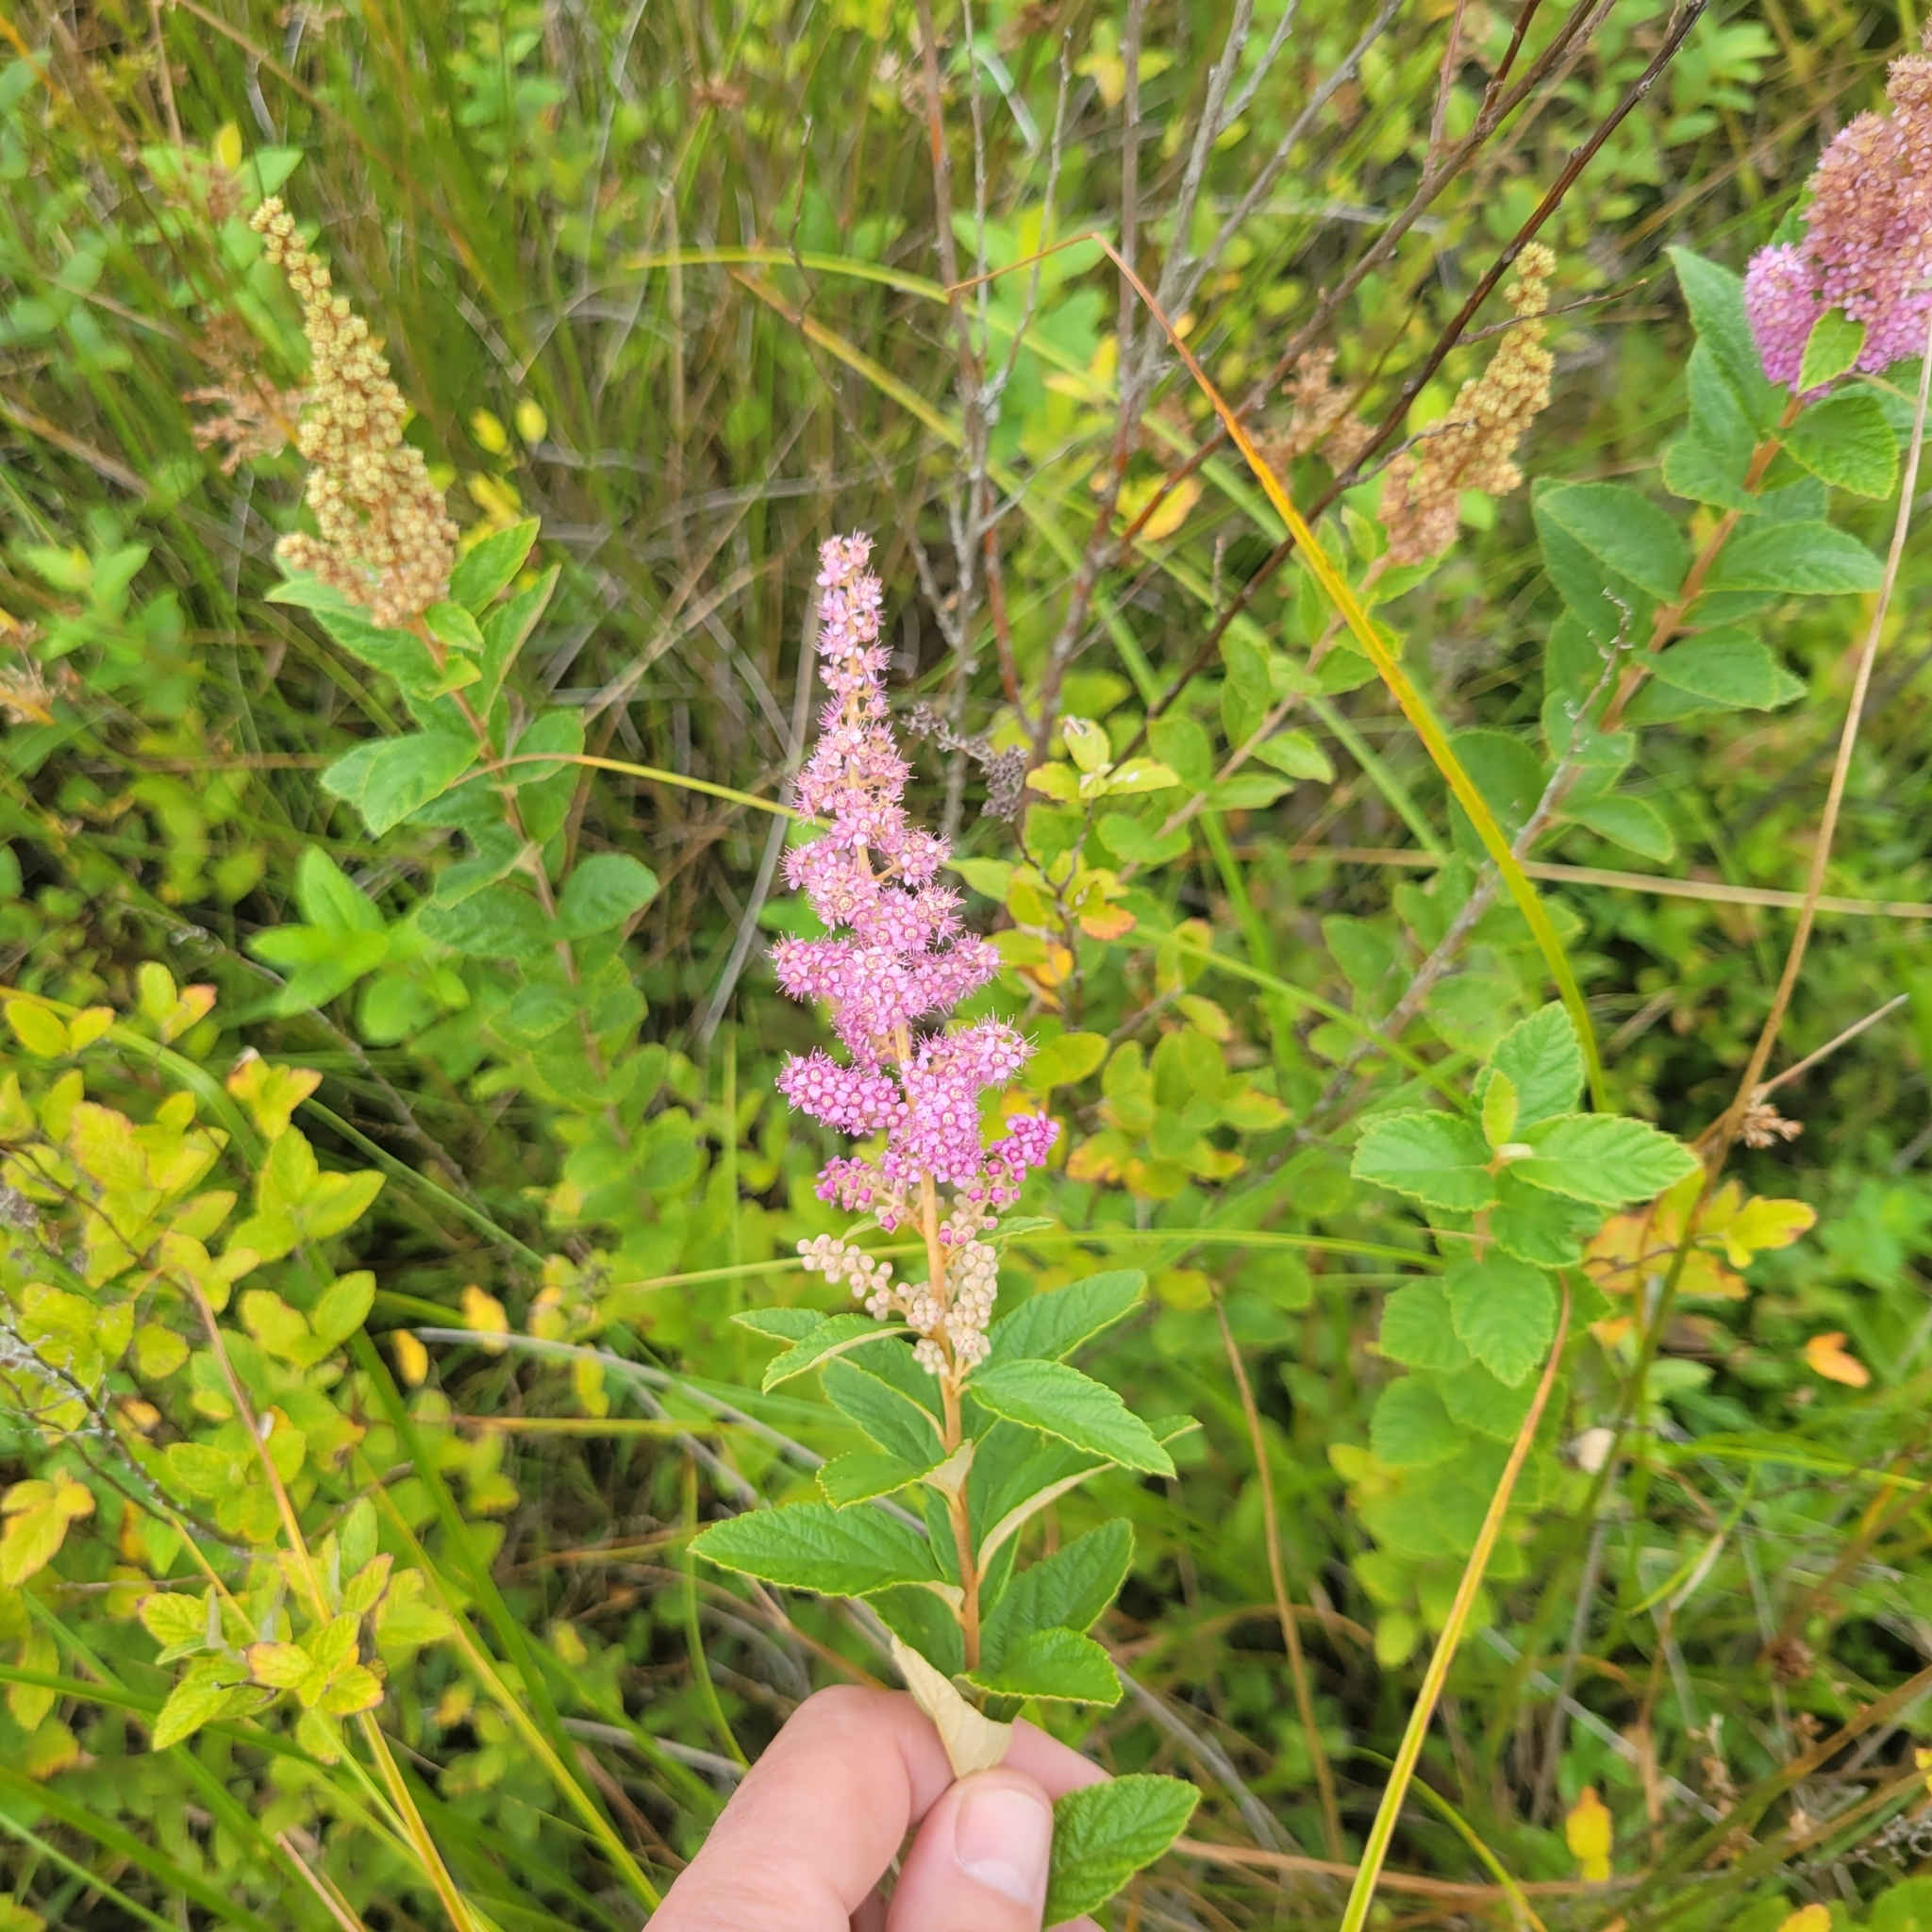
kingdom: Plantae
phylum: Tracheophyta
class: Magnoliopsida
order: Rosales
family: Rosaceae
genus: Spiraea
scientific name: Spiraea tomentosa
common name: Hardhack
